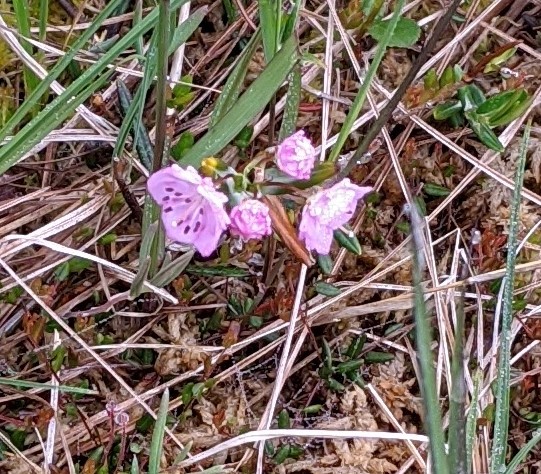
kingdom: Plantae
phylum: Tracheophyta
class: Magnoliopsida
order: Ericales
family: Ericaceae
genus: Kalmia
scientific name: Kalmia polifolia
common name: Bog-laurel
